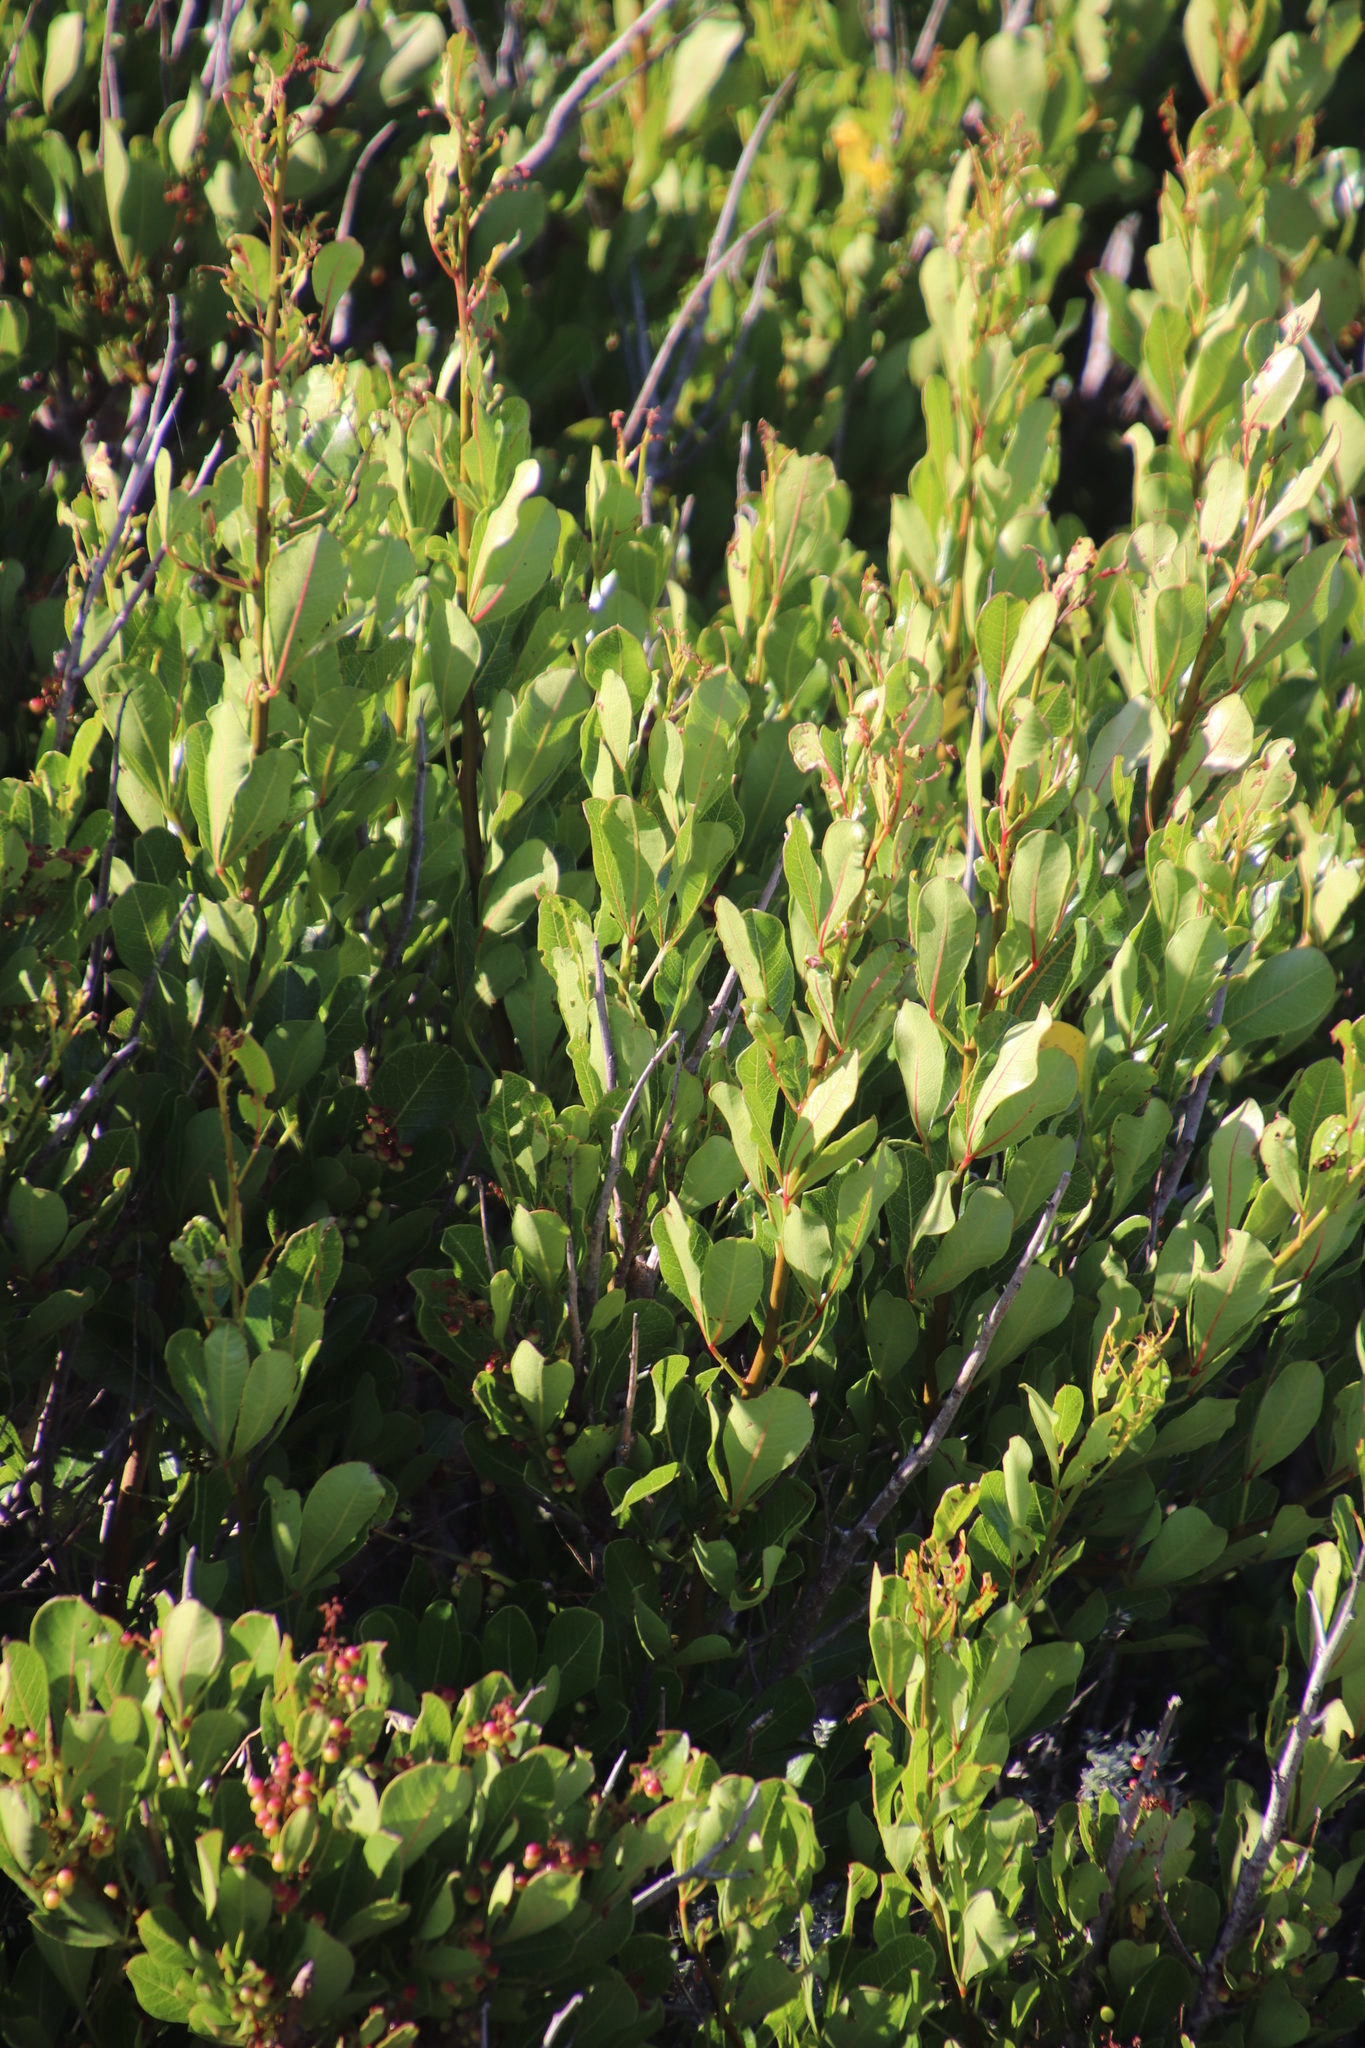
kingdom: Plantae
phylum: Tracheophyta
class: Magnoliopsida
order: Sapindales
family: Anacardiaceae
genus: Searsia
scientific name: Searsia laevigata
